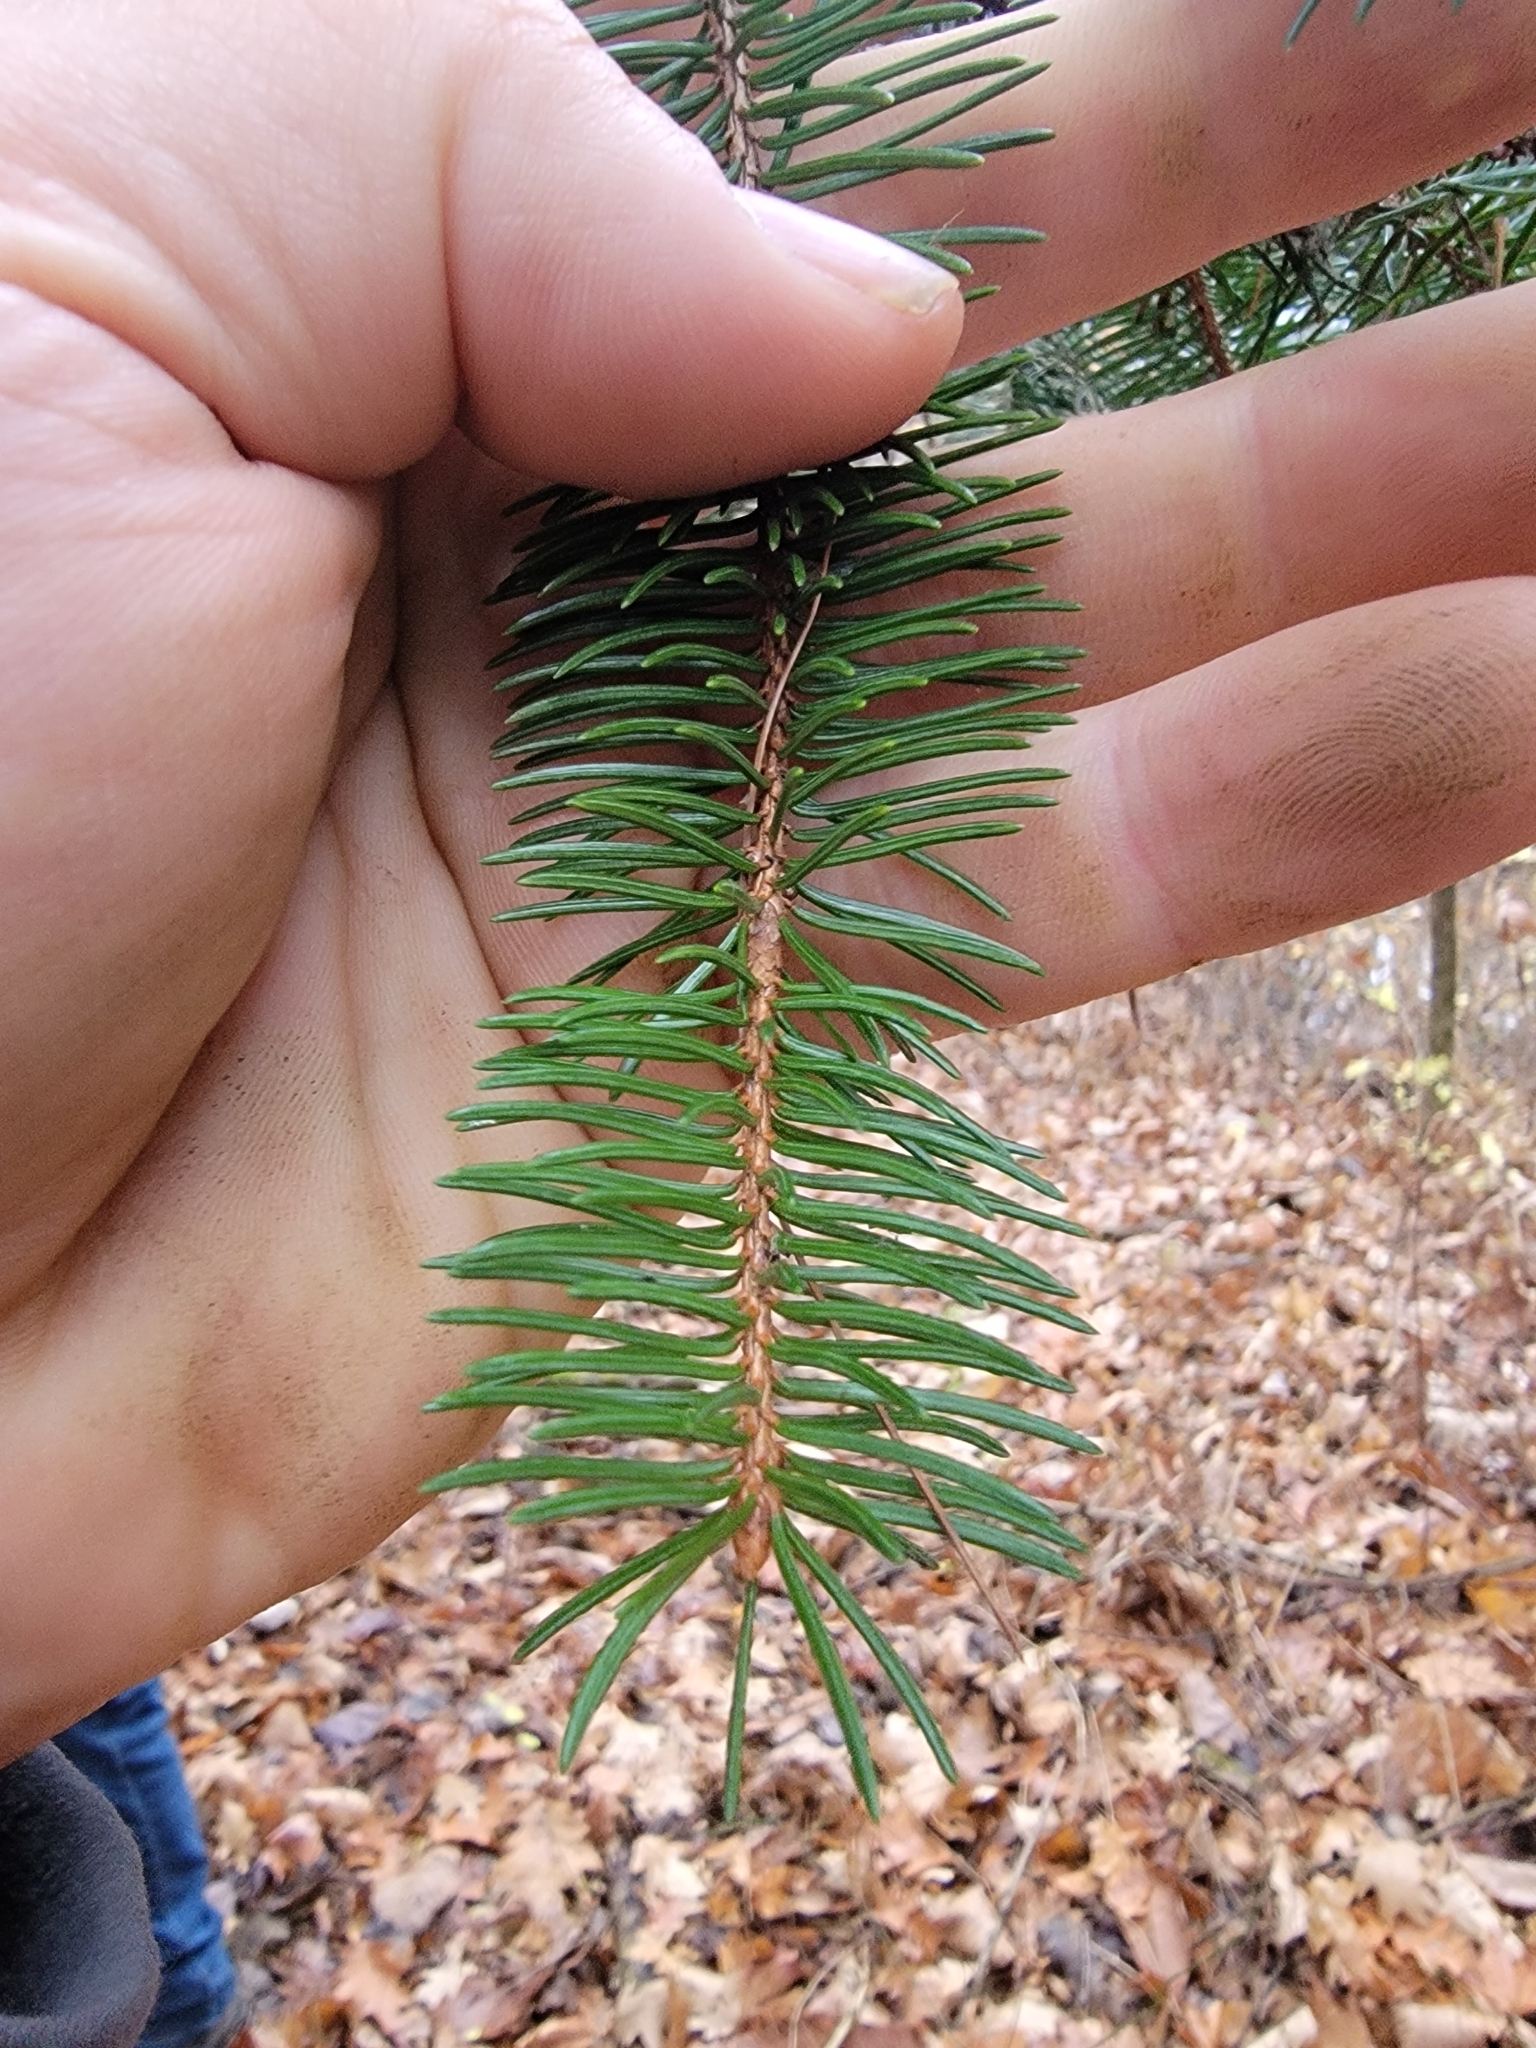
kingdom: Plantae
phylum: Tracheophyta
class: Pinopsida
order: Pinales
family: Pinaceae
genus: Picea
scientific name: Picea abies
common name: Norway spruce
